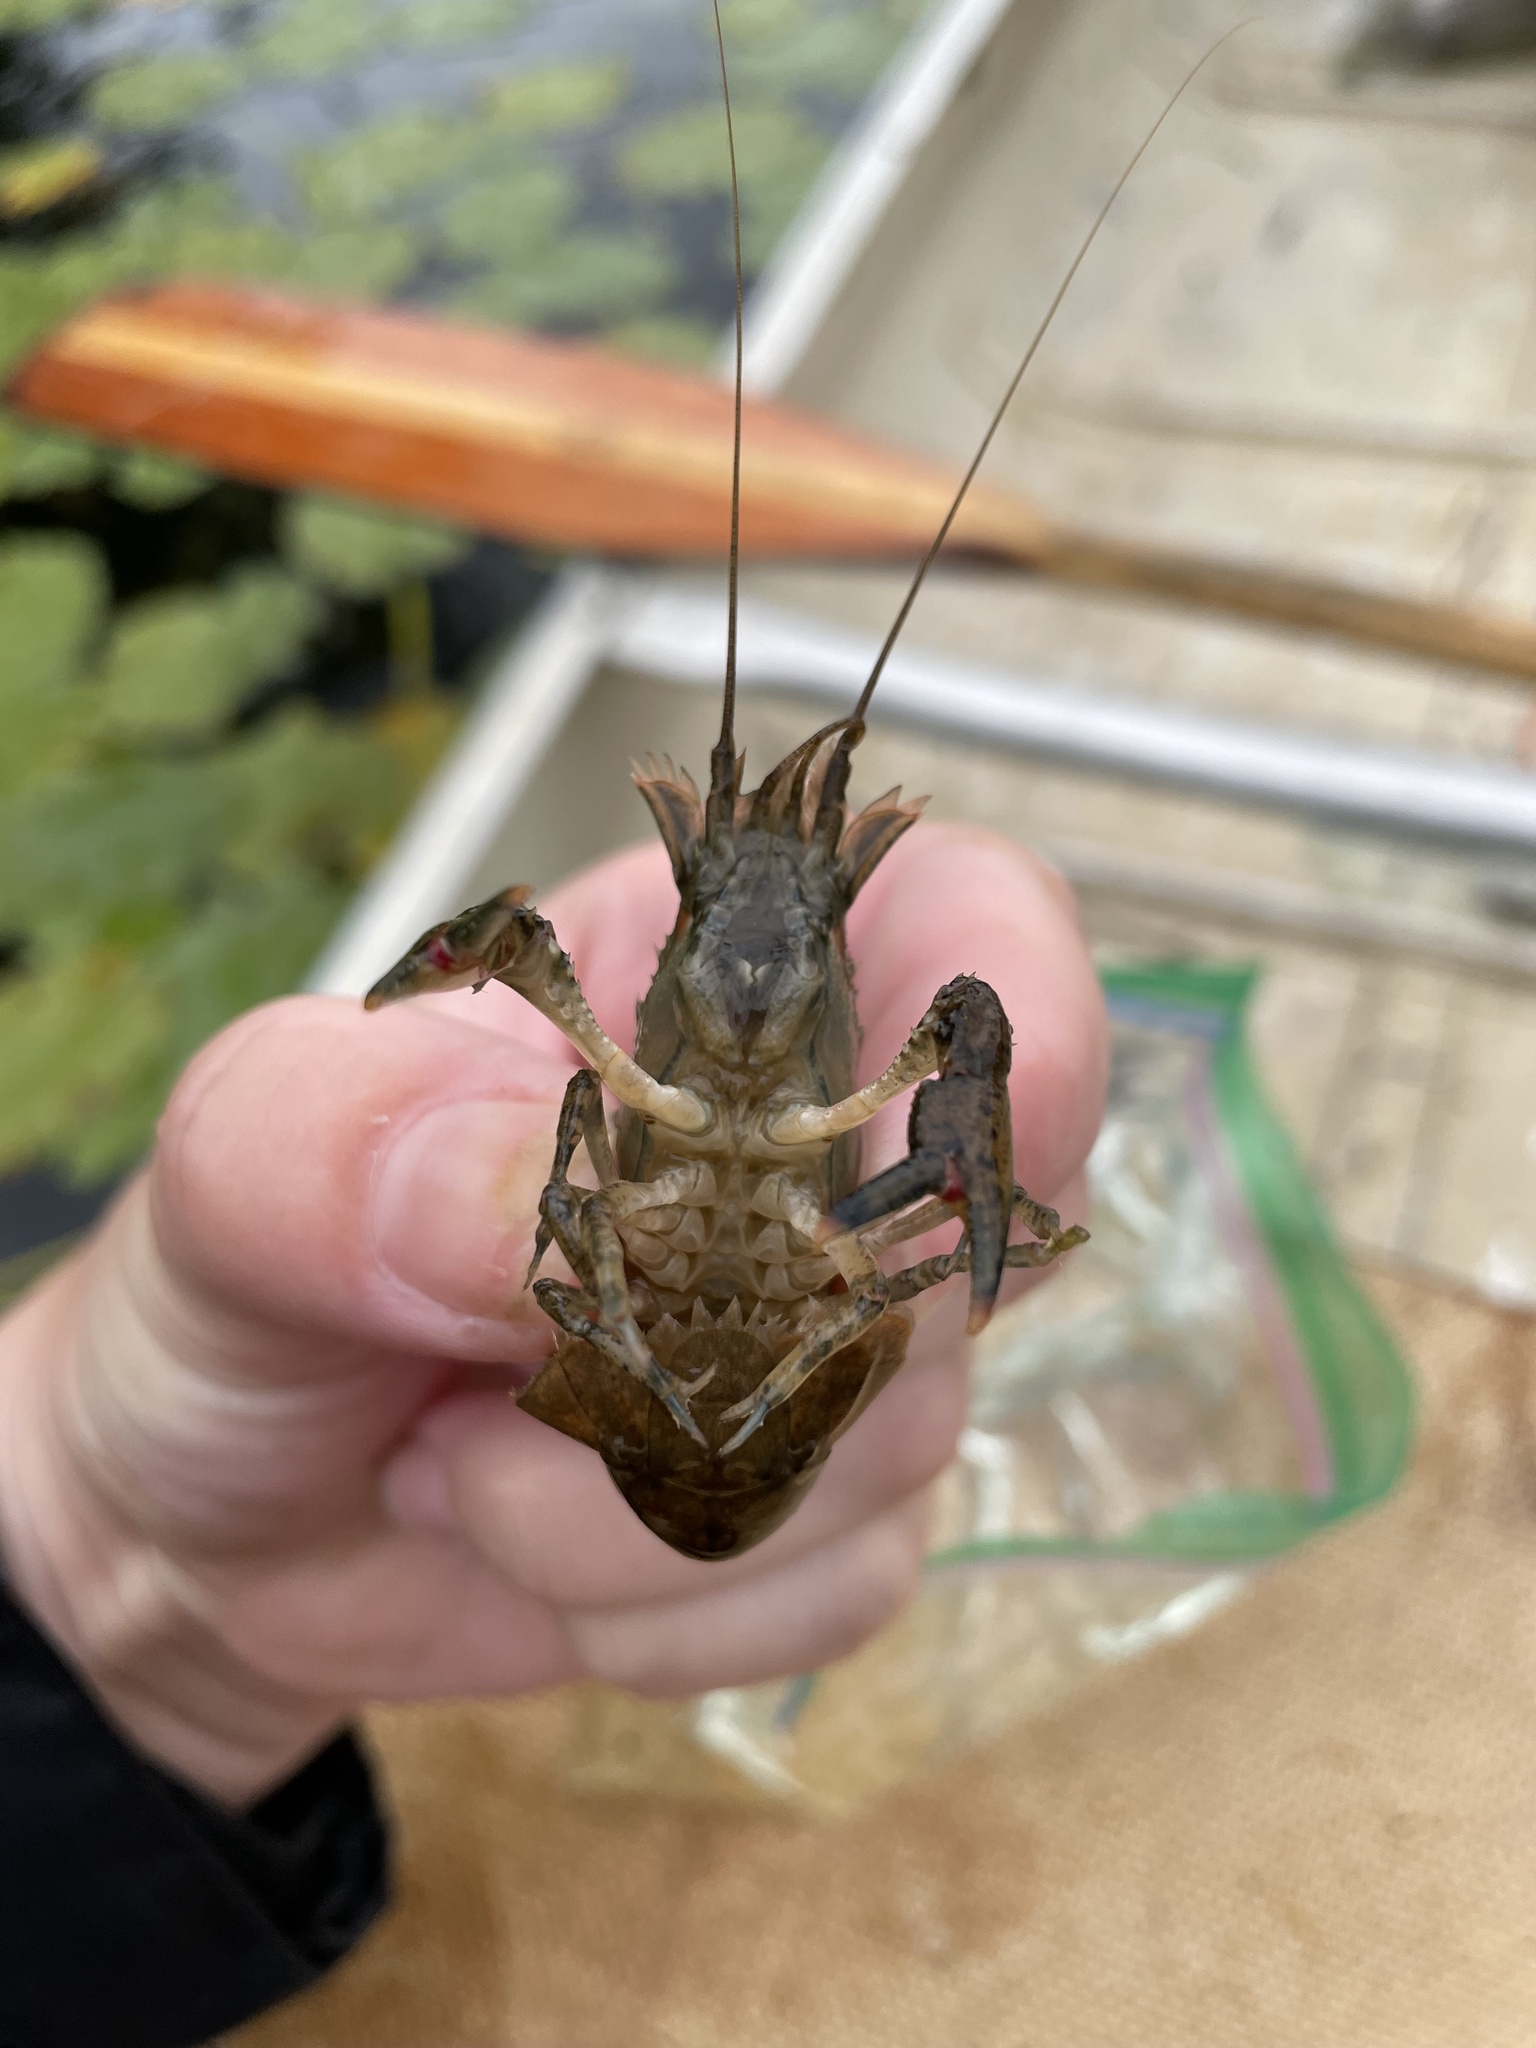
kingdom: Animalia
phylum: Arthropoda
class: Malacostraca
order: Decapoda
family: Cambaridae
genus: Faxonius
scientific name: Faxonius limosus
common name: American crayfish
